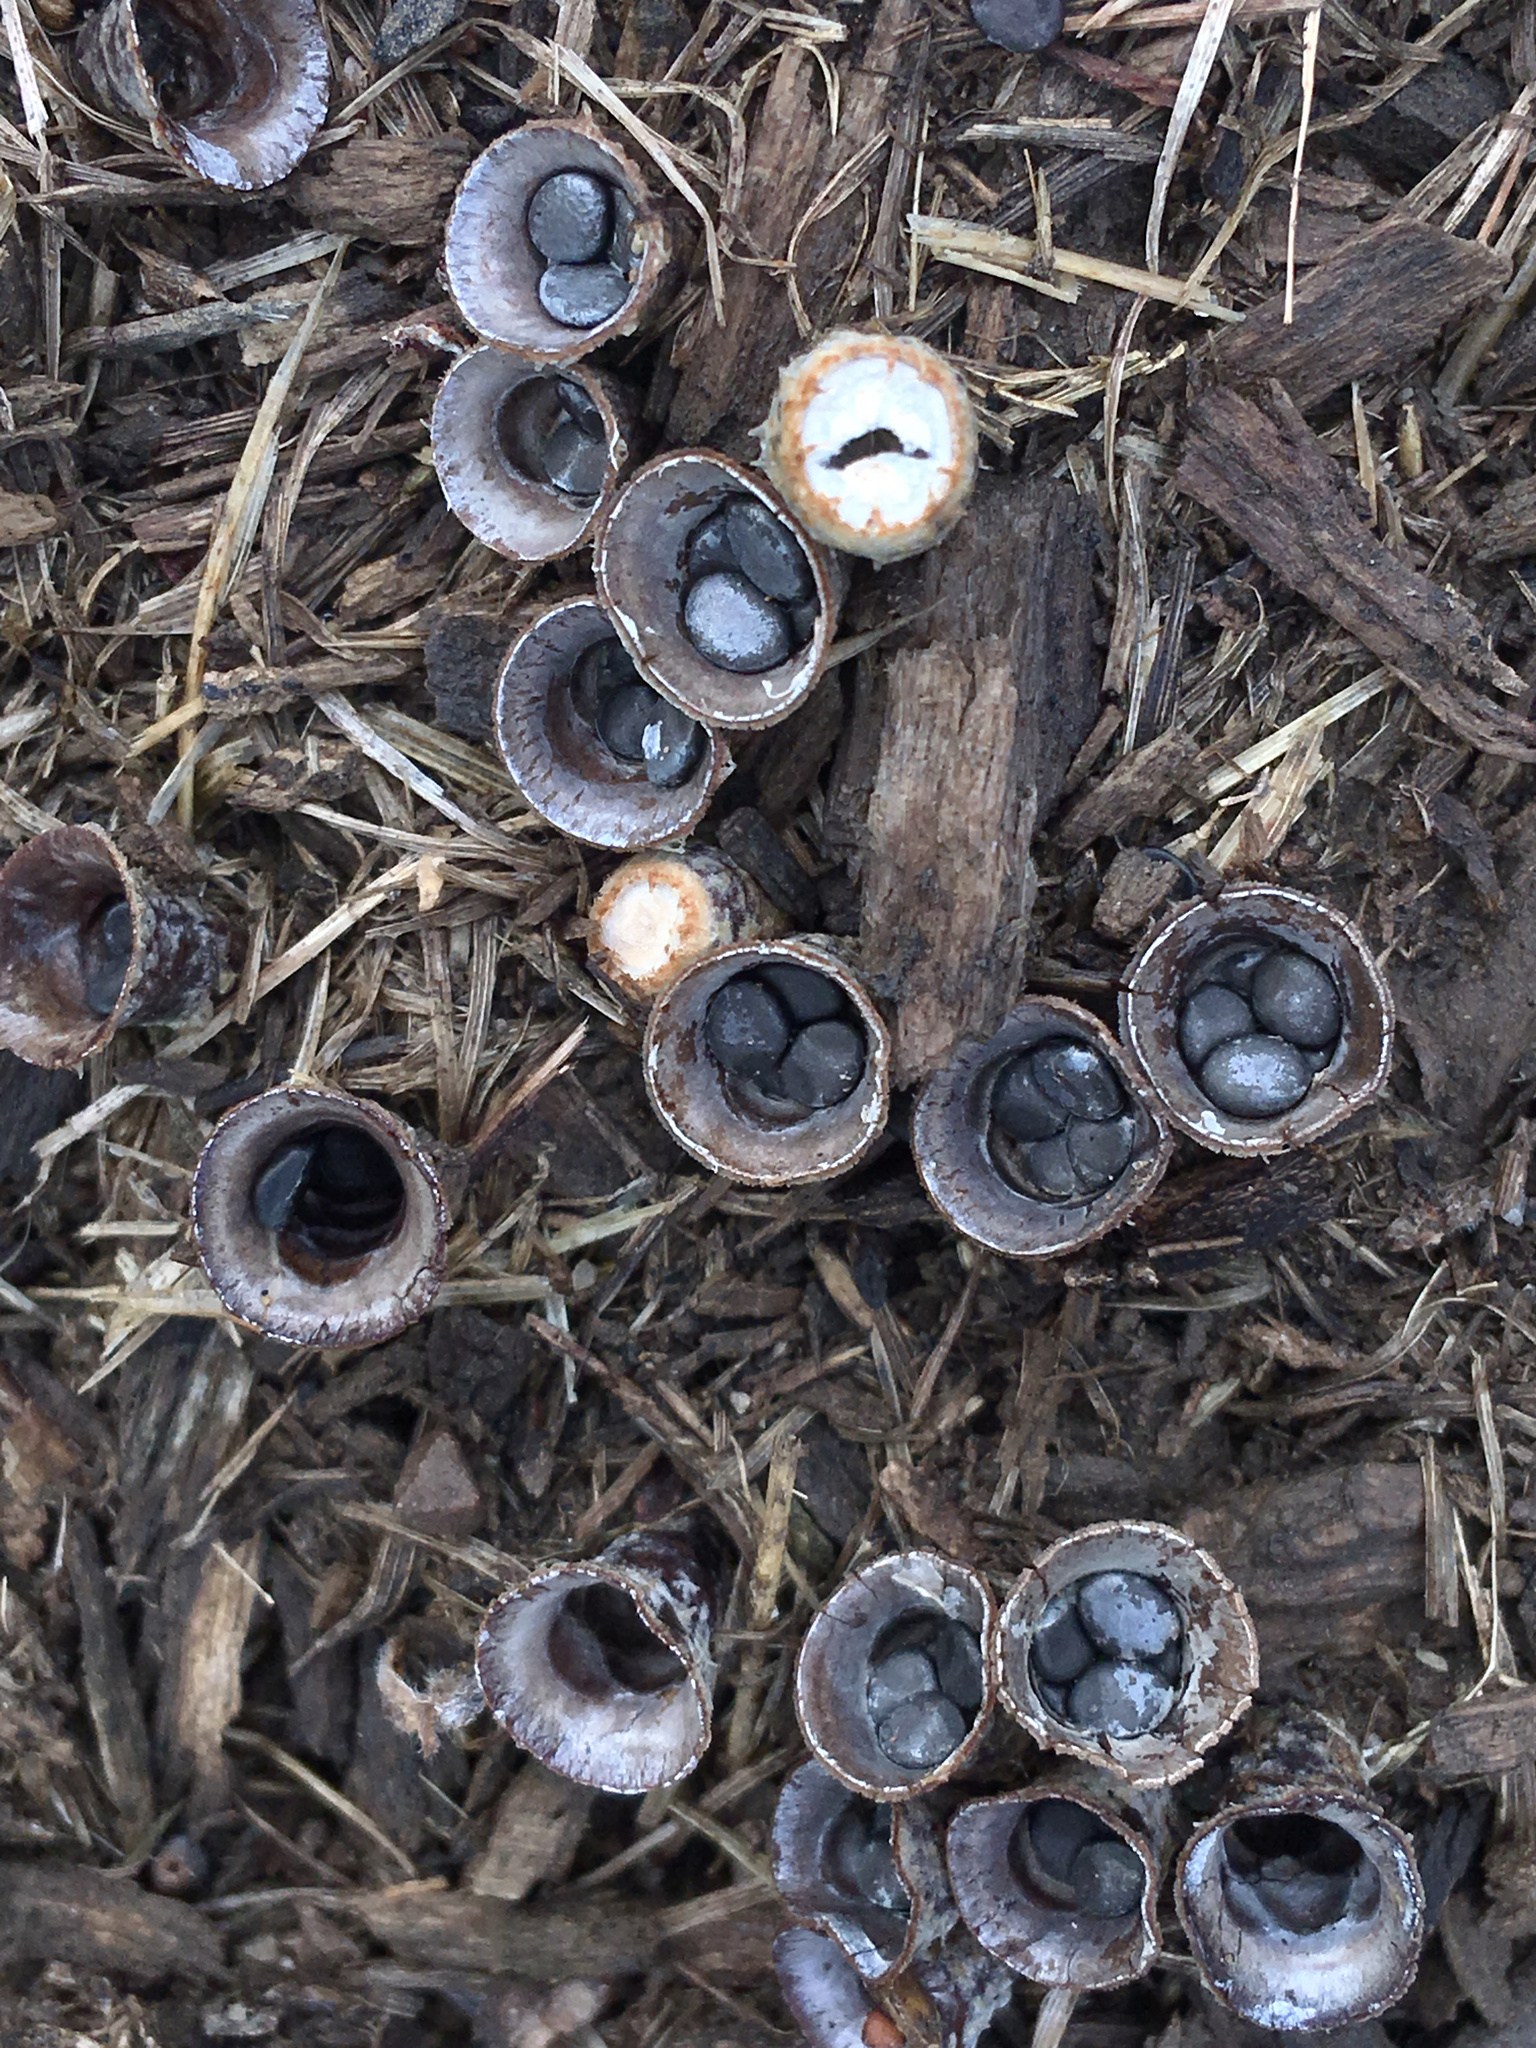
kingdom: Fungi
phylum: Basidiomycota
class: Agaricomycetes
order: Agaricales
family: Agaricaceae
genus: Cyathus
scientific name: Cyathus stercoreus
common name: Dung bird's nest
